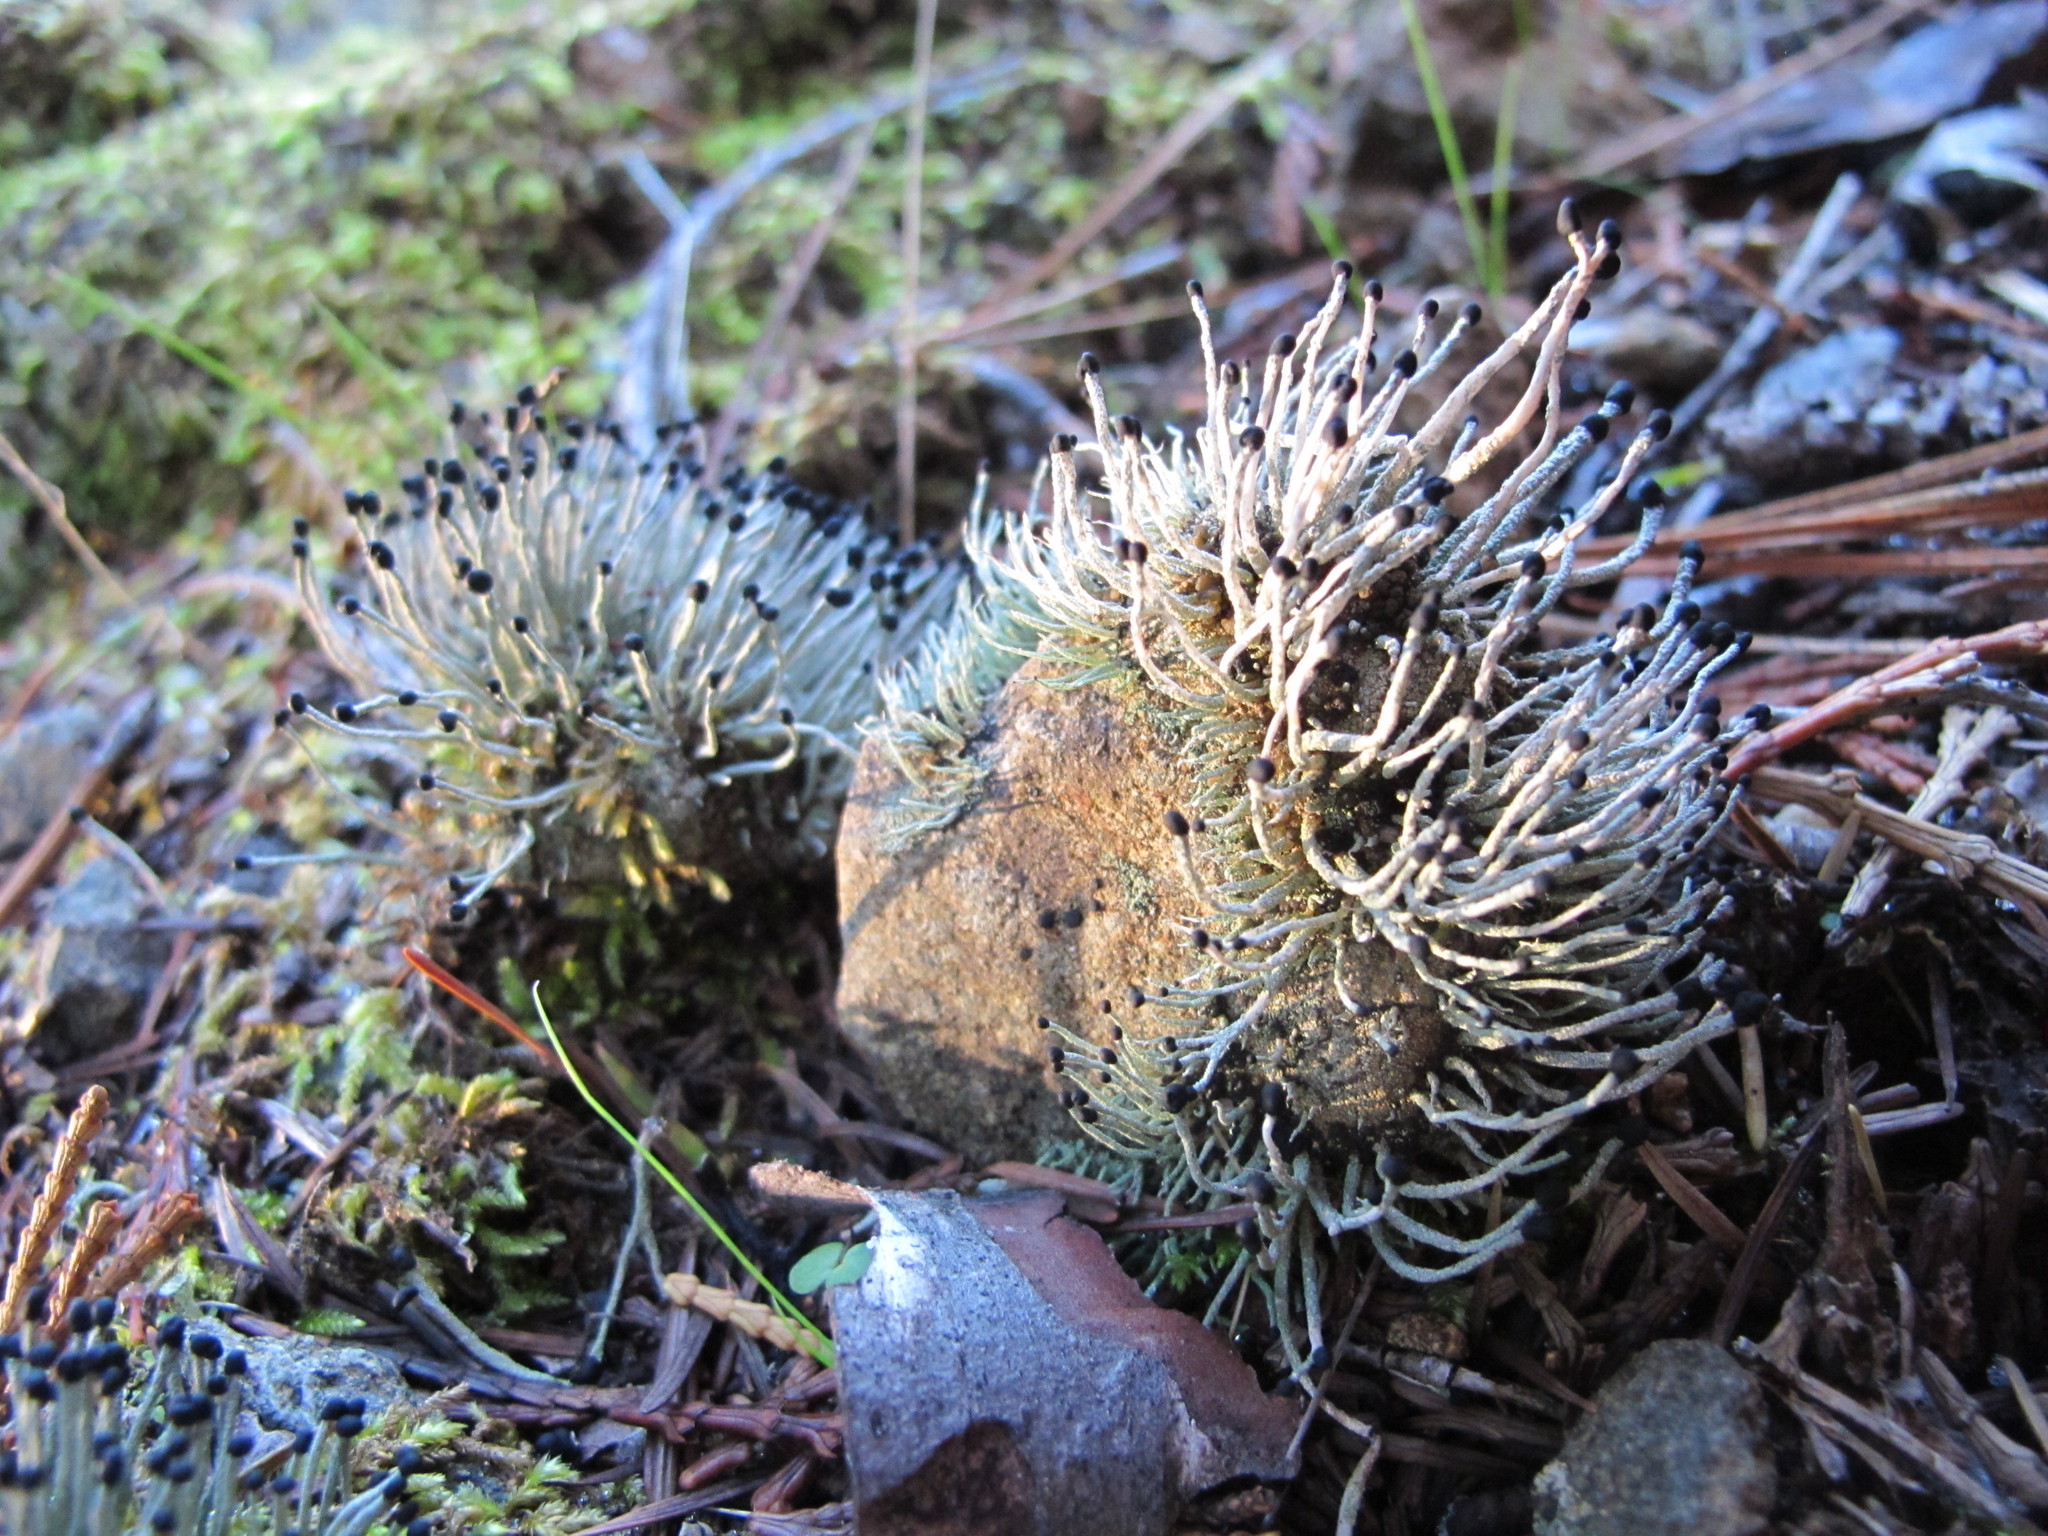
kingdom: Fungi
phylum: Ascomycota
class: Lecanoromycetes
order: Lecanorales
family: Cladoniaceae
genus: Pilophorus
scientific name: Pilophorus acicularis
